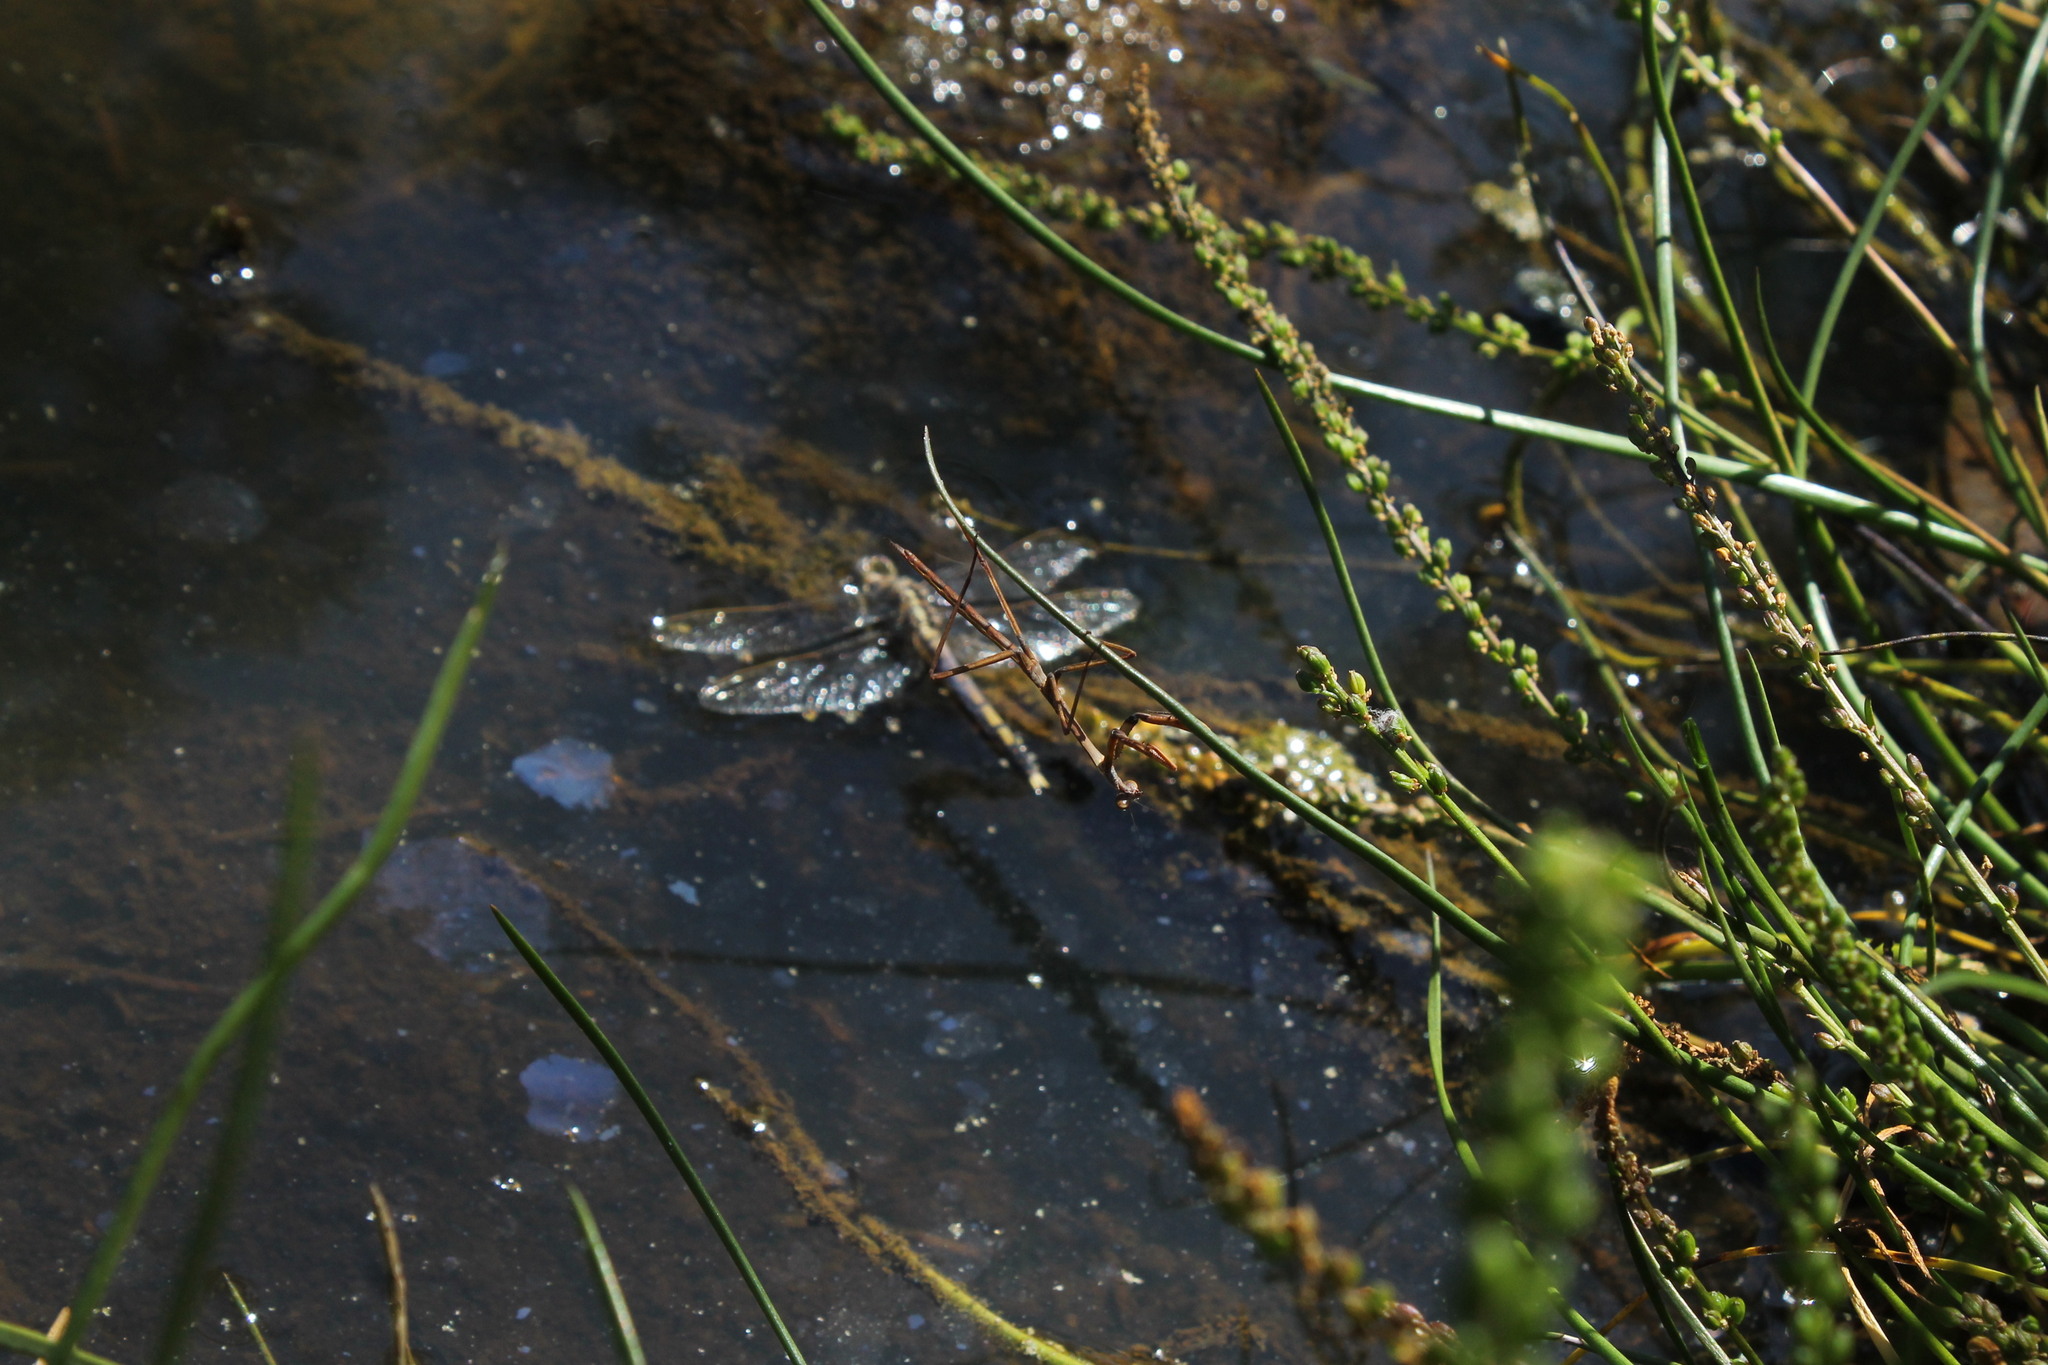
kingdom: Animalia
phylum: Arthropoda
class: Insecta
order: Mantodea
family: Mantidae
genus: Archimantis
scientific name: Archimantis sobrina
